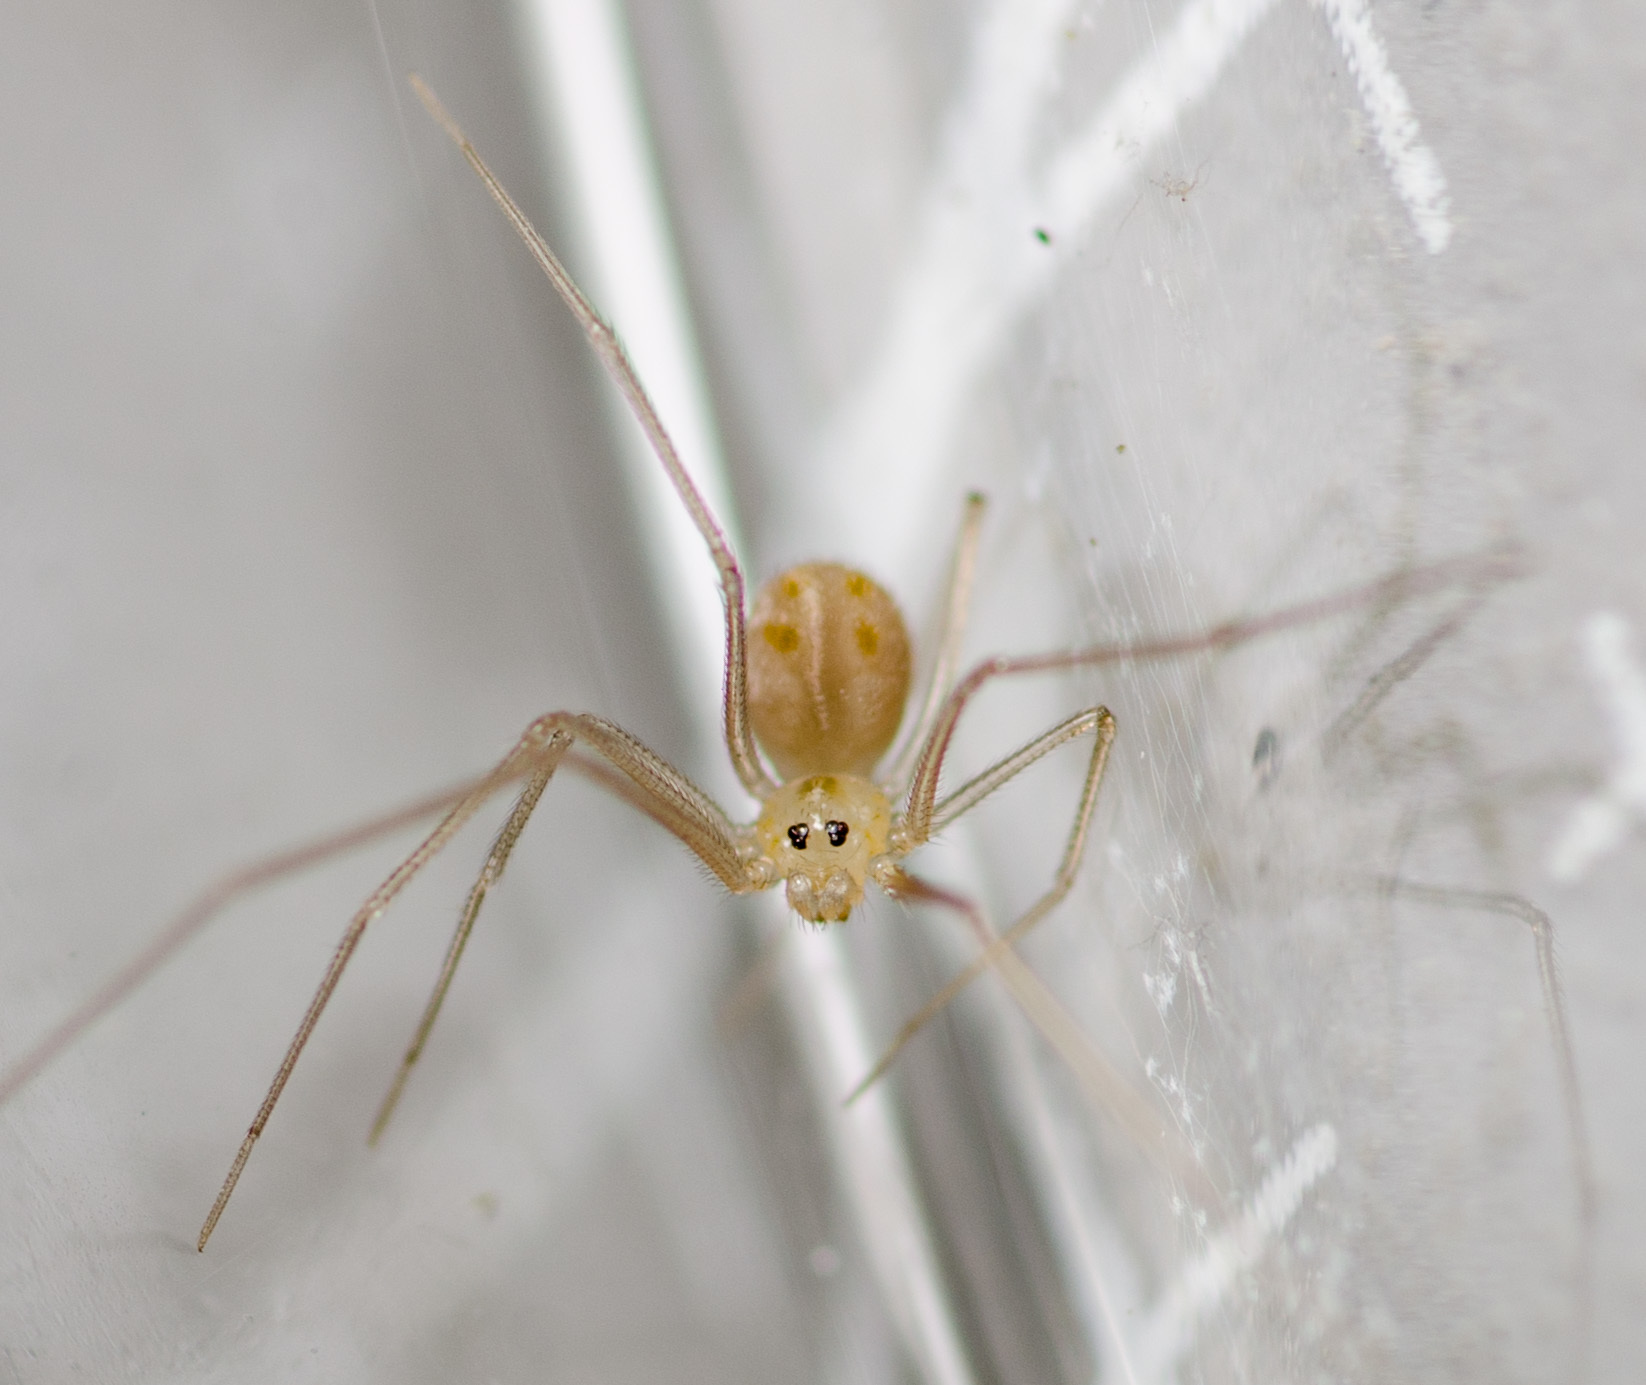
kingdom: Animalia
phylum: Arthropoda
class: Arachnida
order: Araneae
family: Pholcidae
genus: Spermophora
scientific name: Spermophora senoculata
